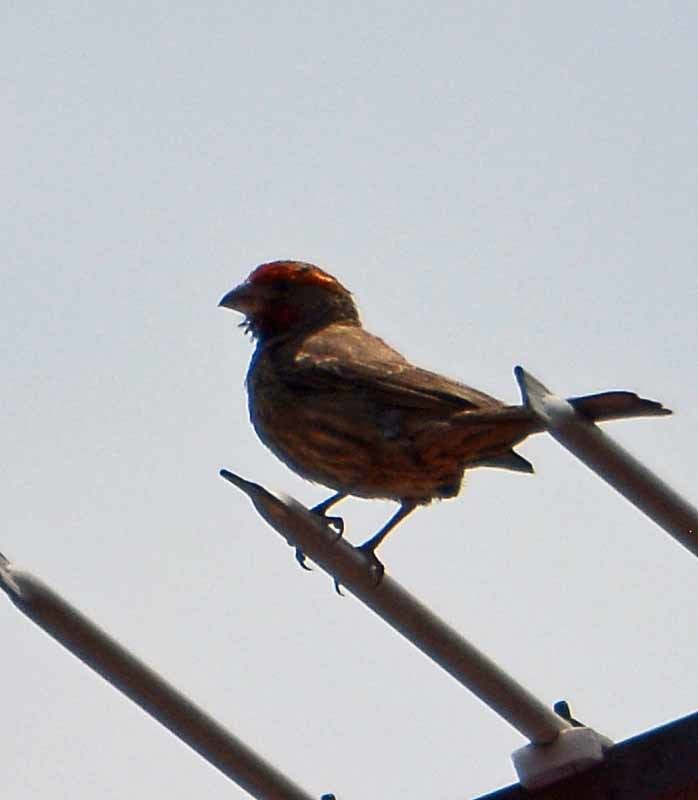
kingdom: Animalia
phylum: Chordata
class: Aves
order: Passeriformes
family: Fringillidae
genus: Haemorhous
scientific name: Haemorhous mexicanus
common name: House finch
